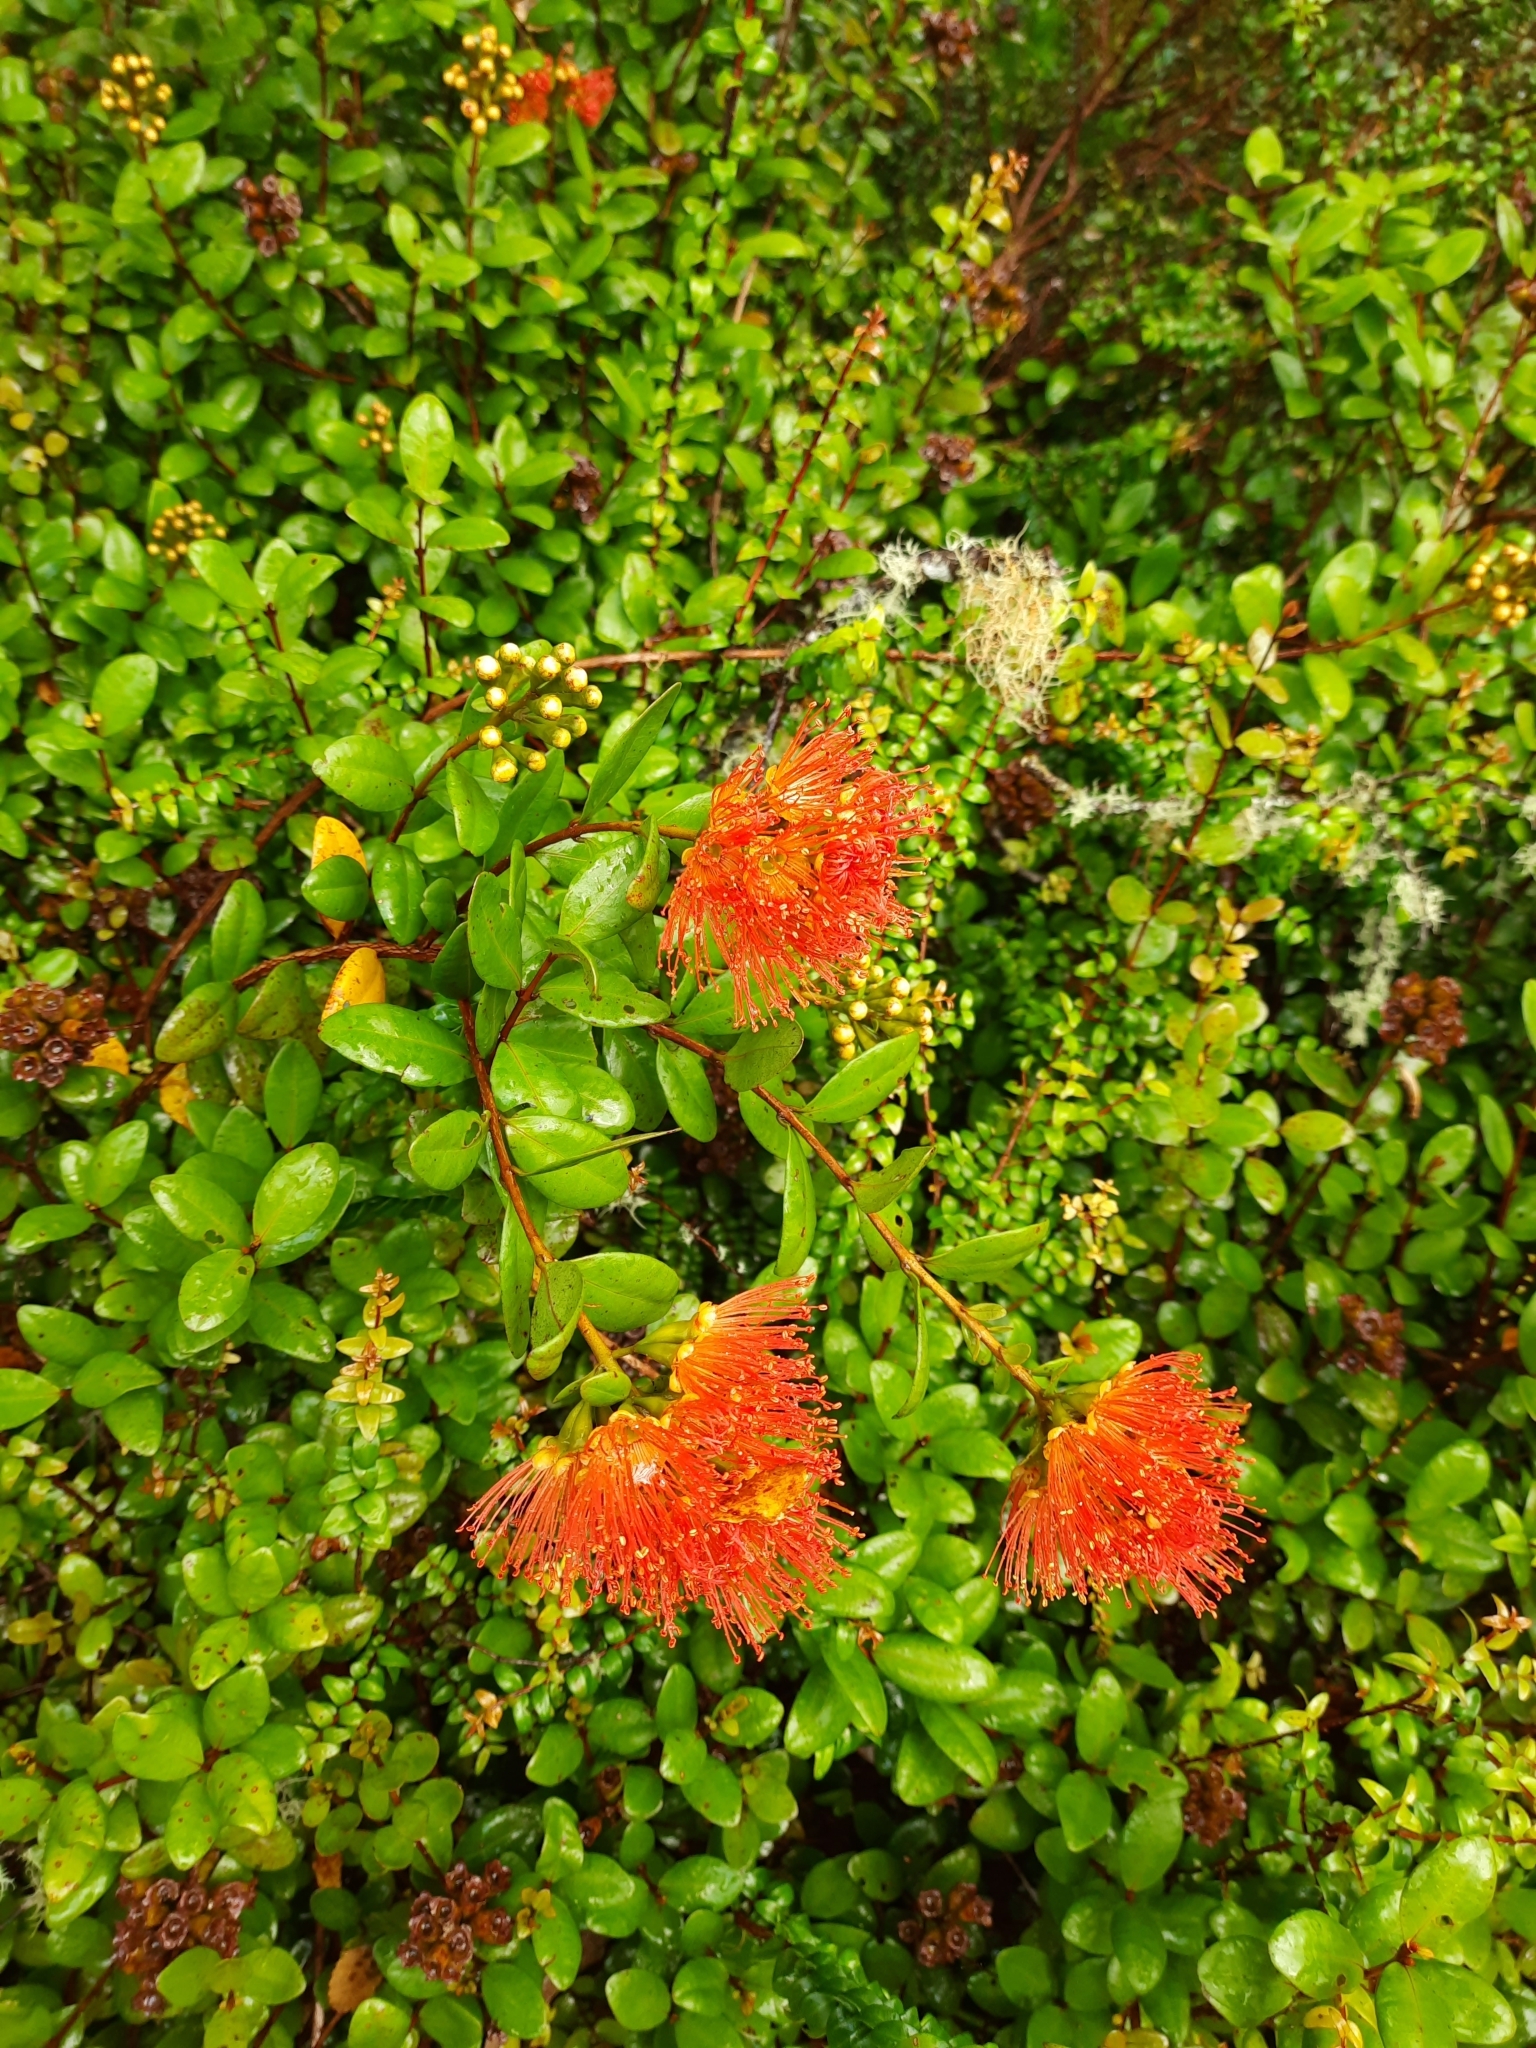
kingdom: Plantae
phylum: Tracheophyta
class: Magnoliopsida
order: Myrtales
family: Myrtaceae
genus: Metrosideros
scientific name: Metrosideros fulgens
